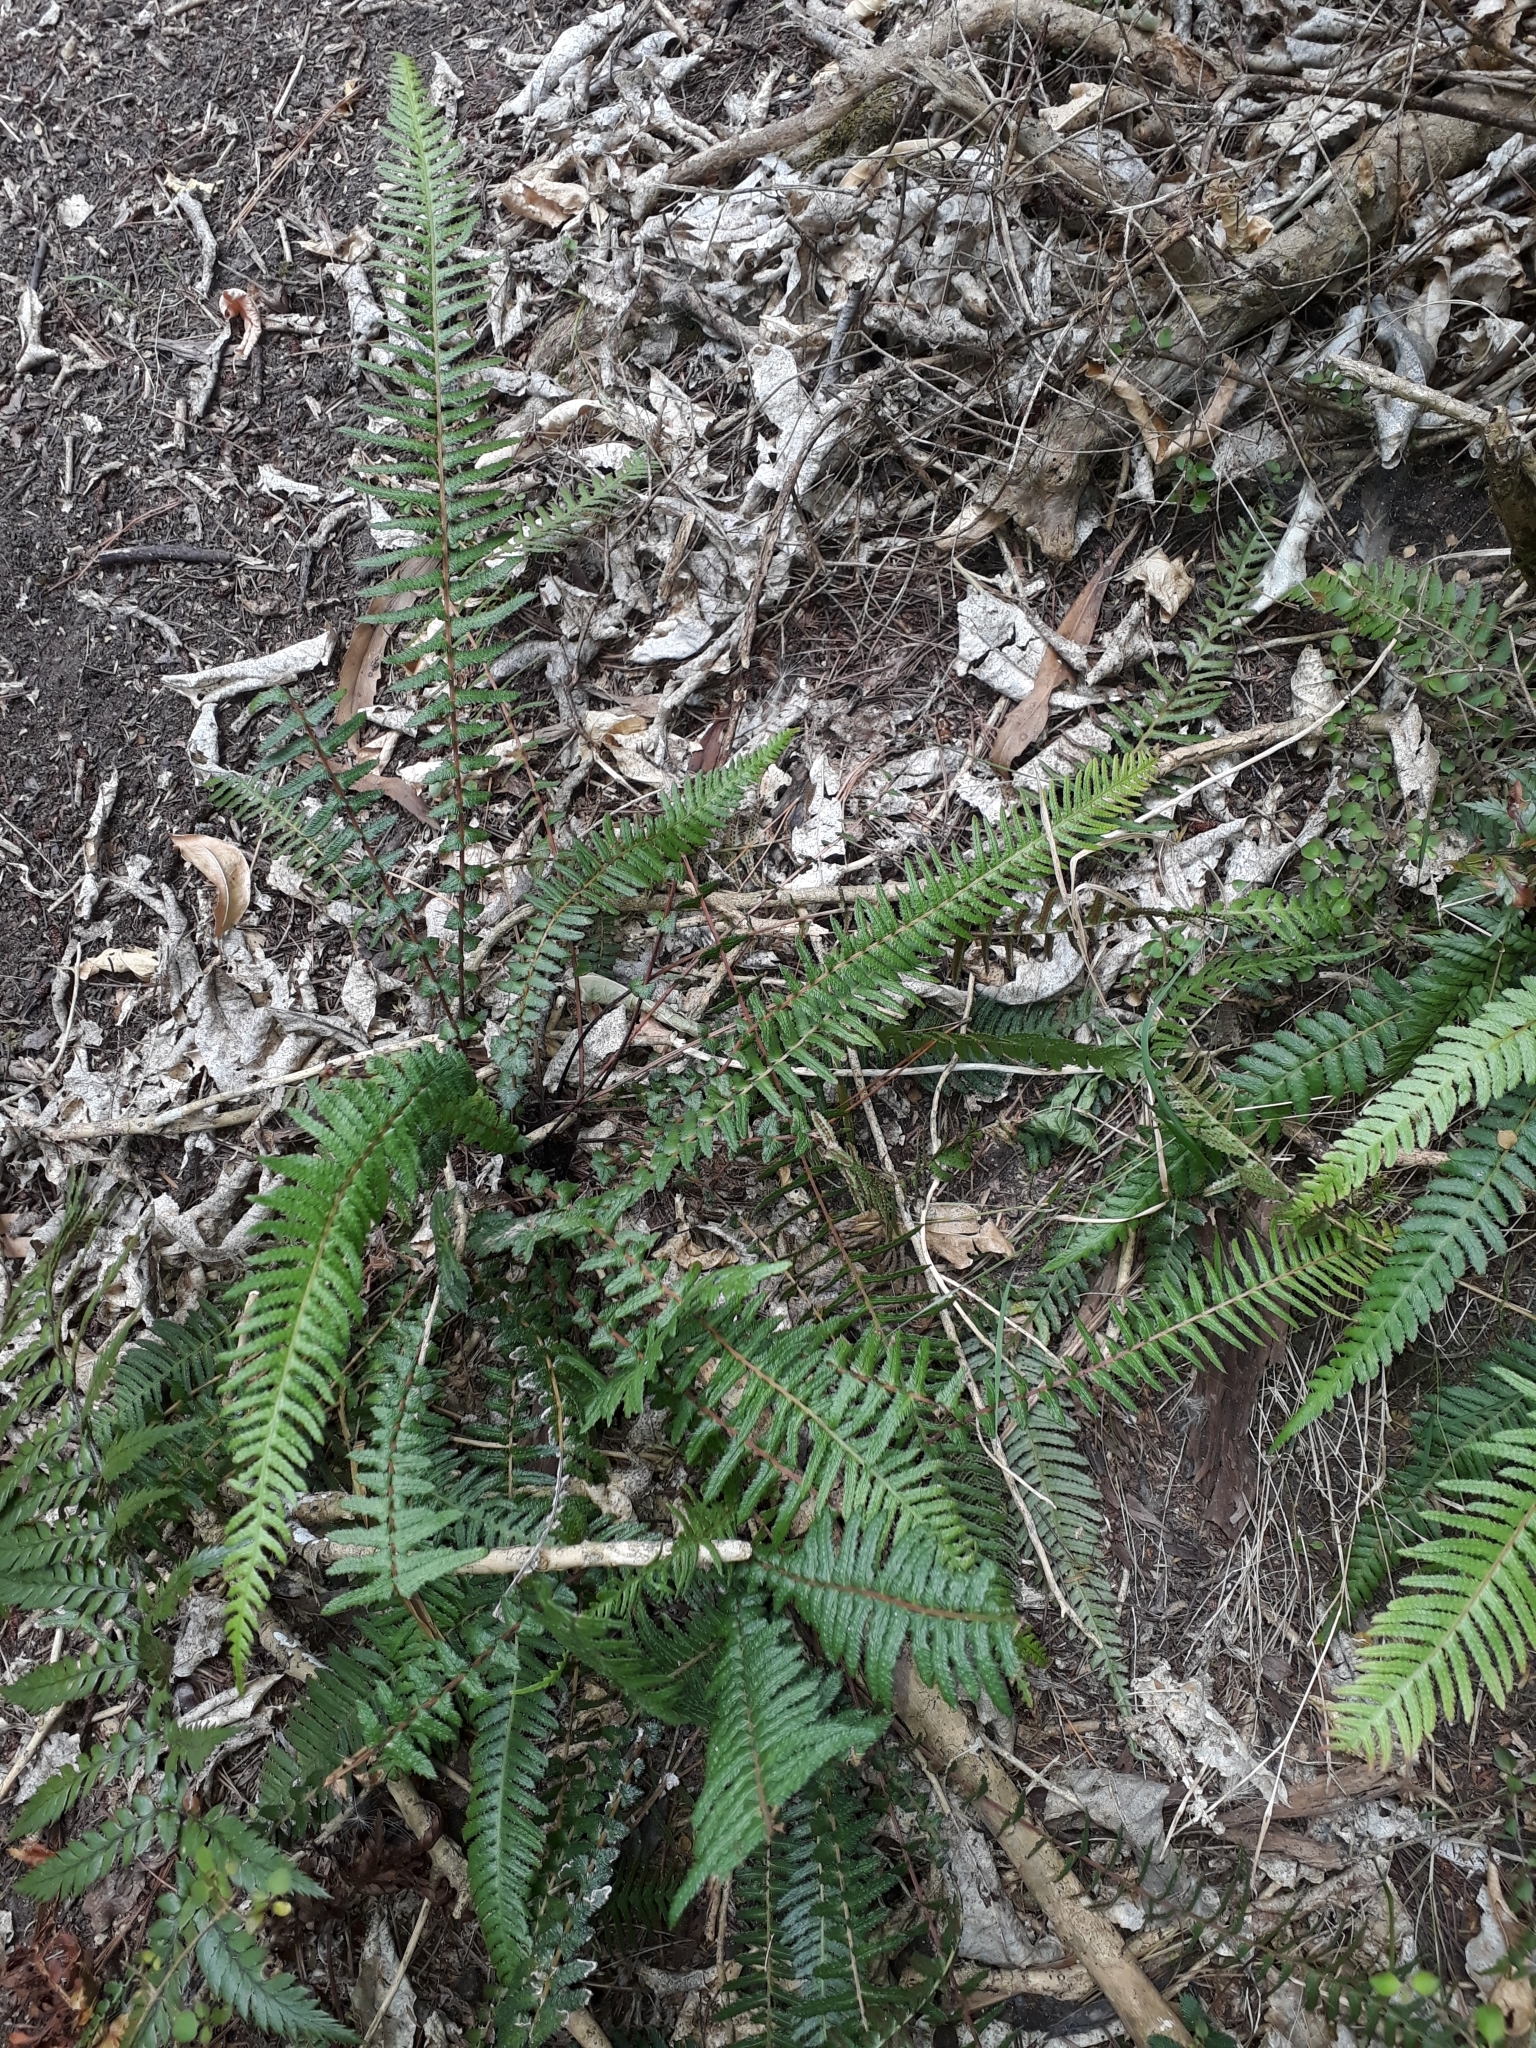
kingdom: Plantae
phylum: Tracheophyta
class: Polypodiopsida
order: Polypodiales
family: Blechnaceae
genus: Doodia
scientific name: Doodia australis
